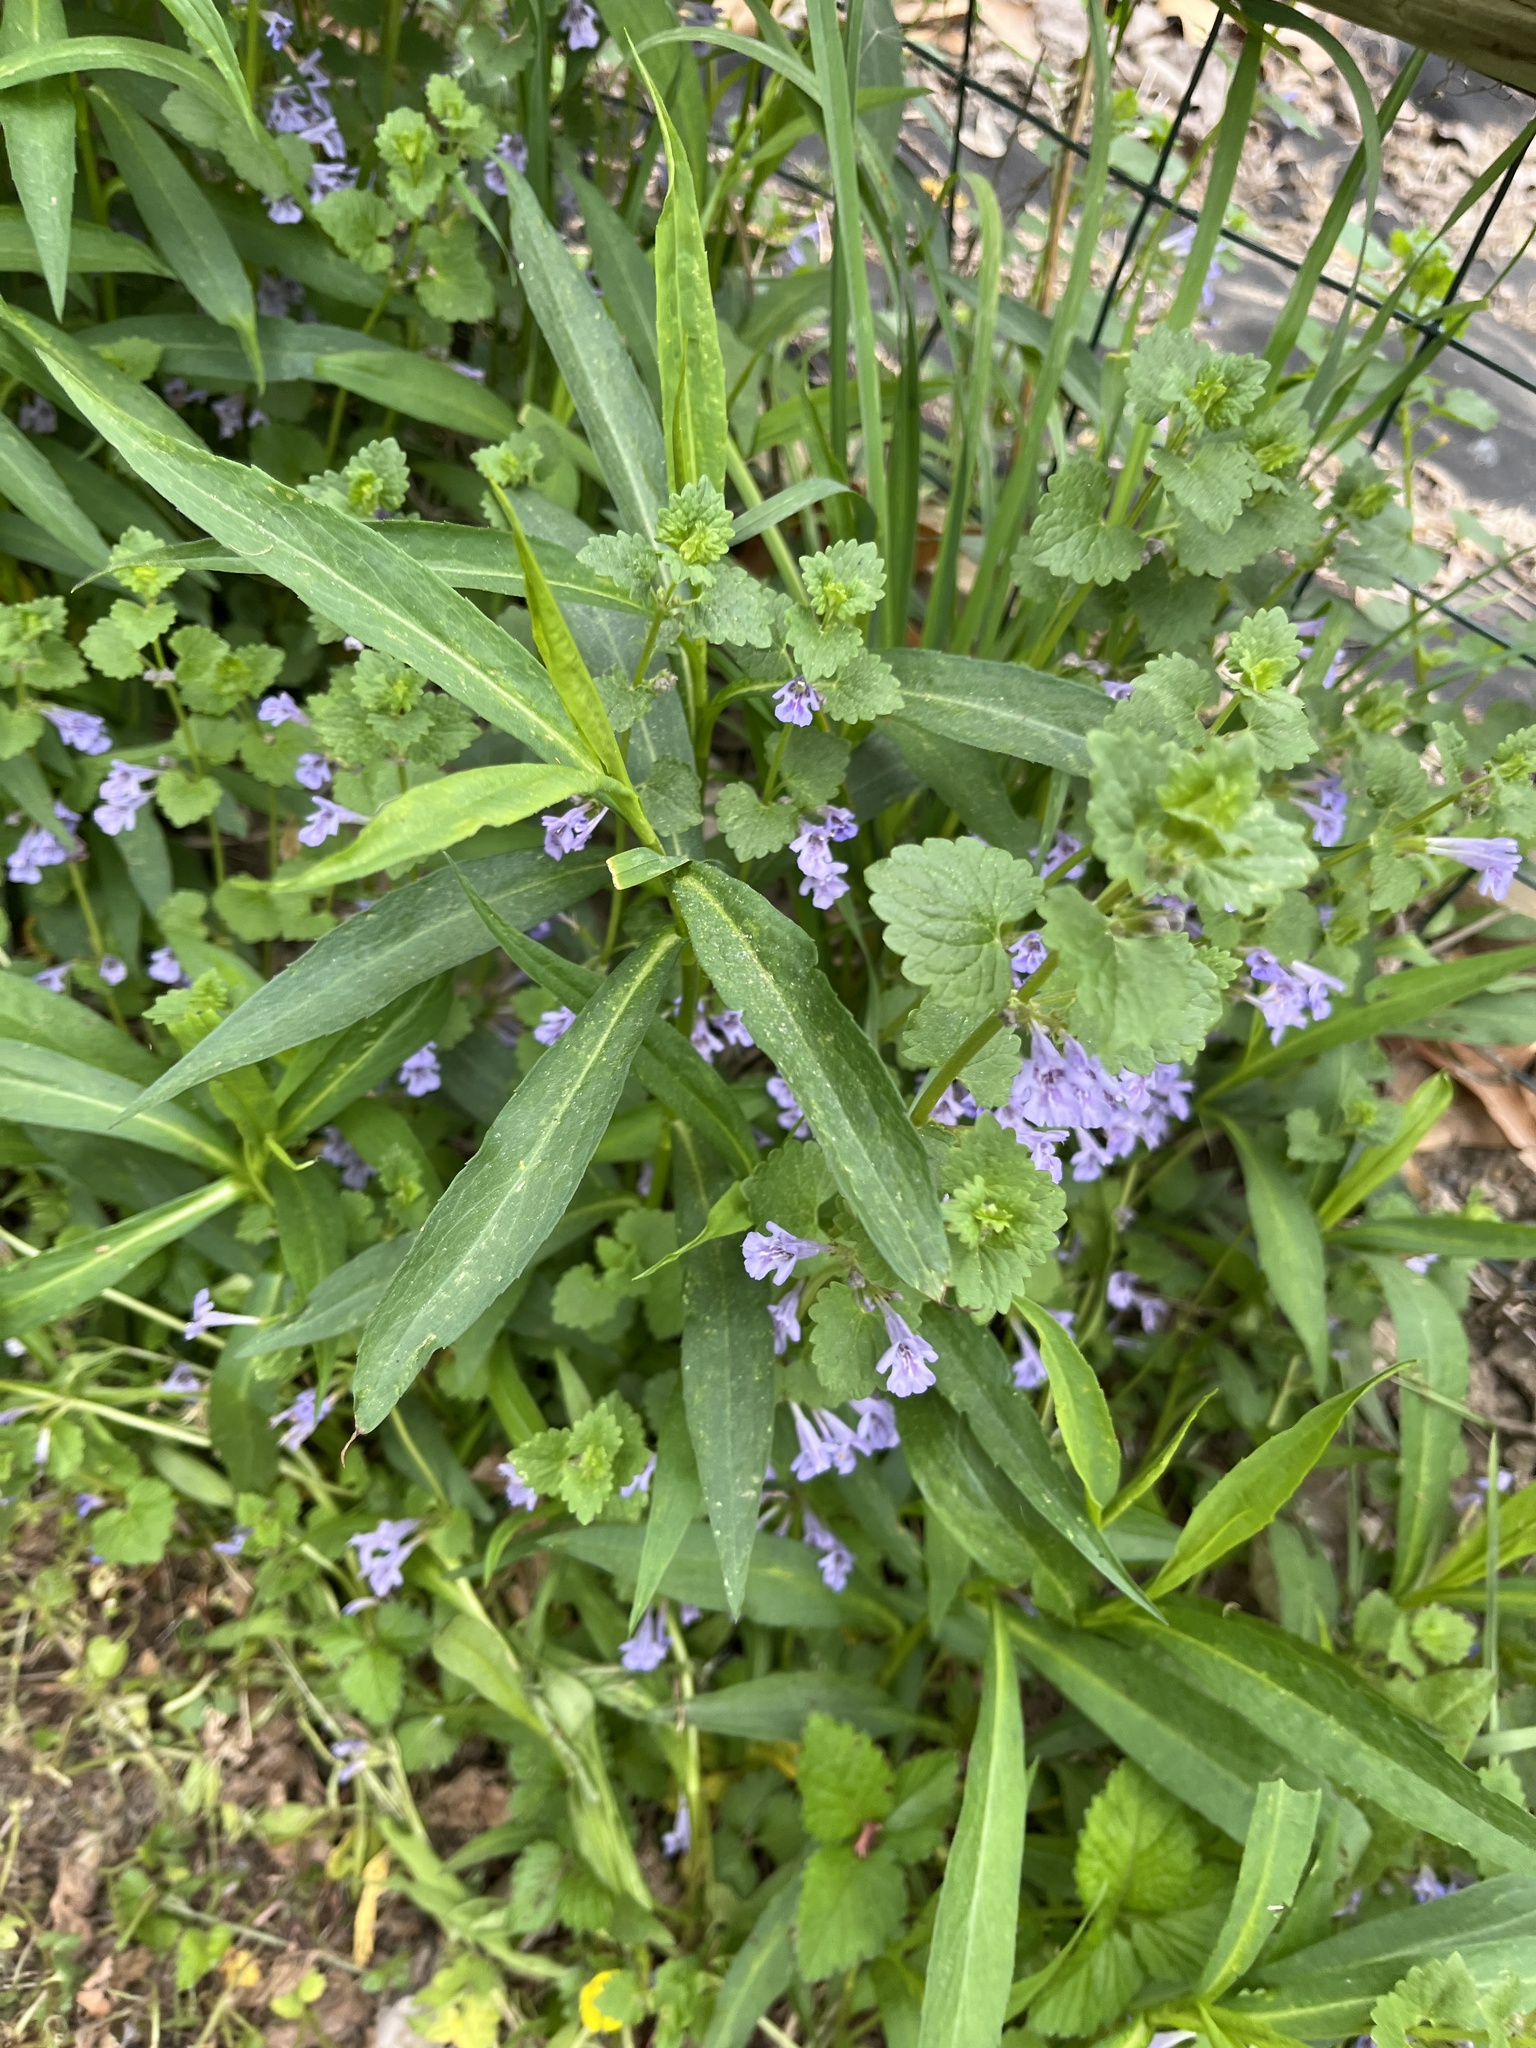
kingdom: Plantae
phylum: Tracheophyta
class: Magnoliopsida
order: Lamiales
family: Lamiaceae
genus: Glechoma
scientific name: Glechoma hederacea
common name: Ground ivy
